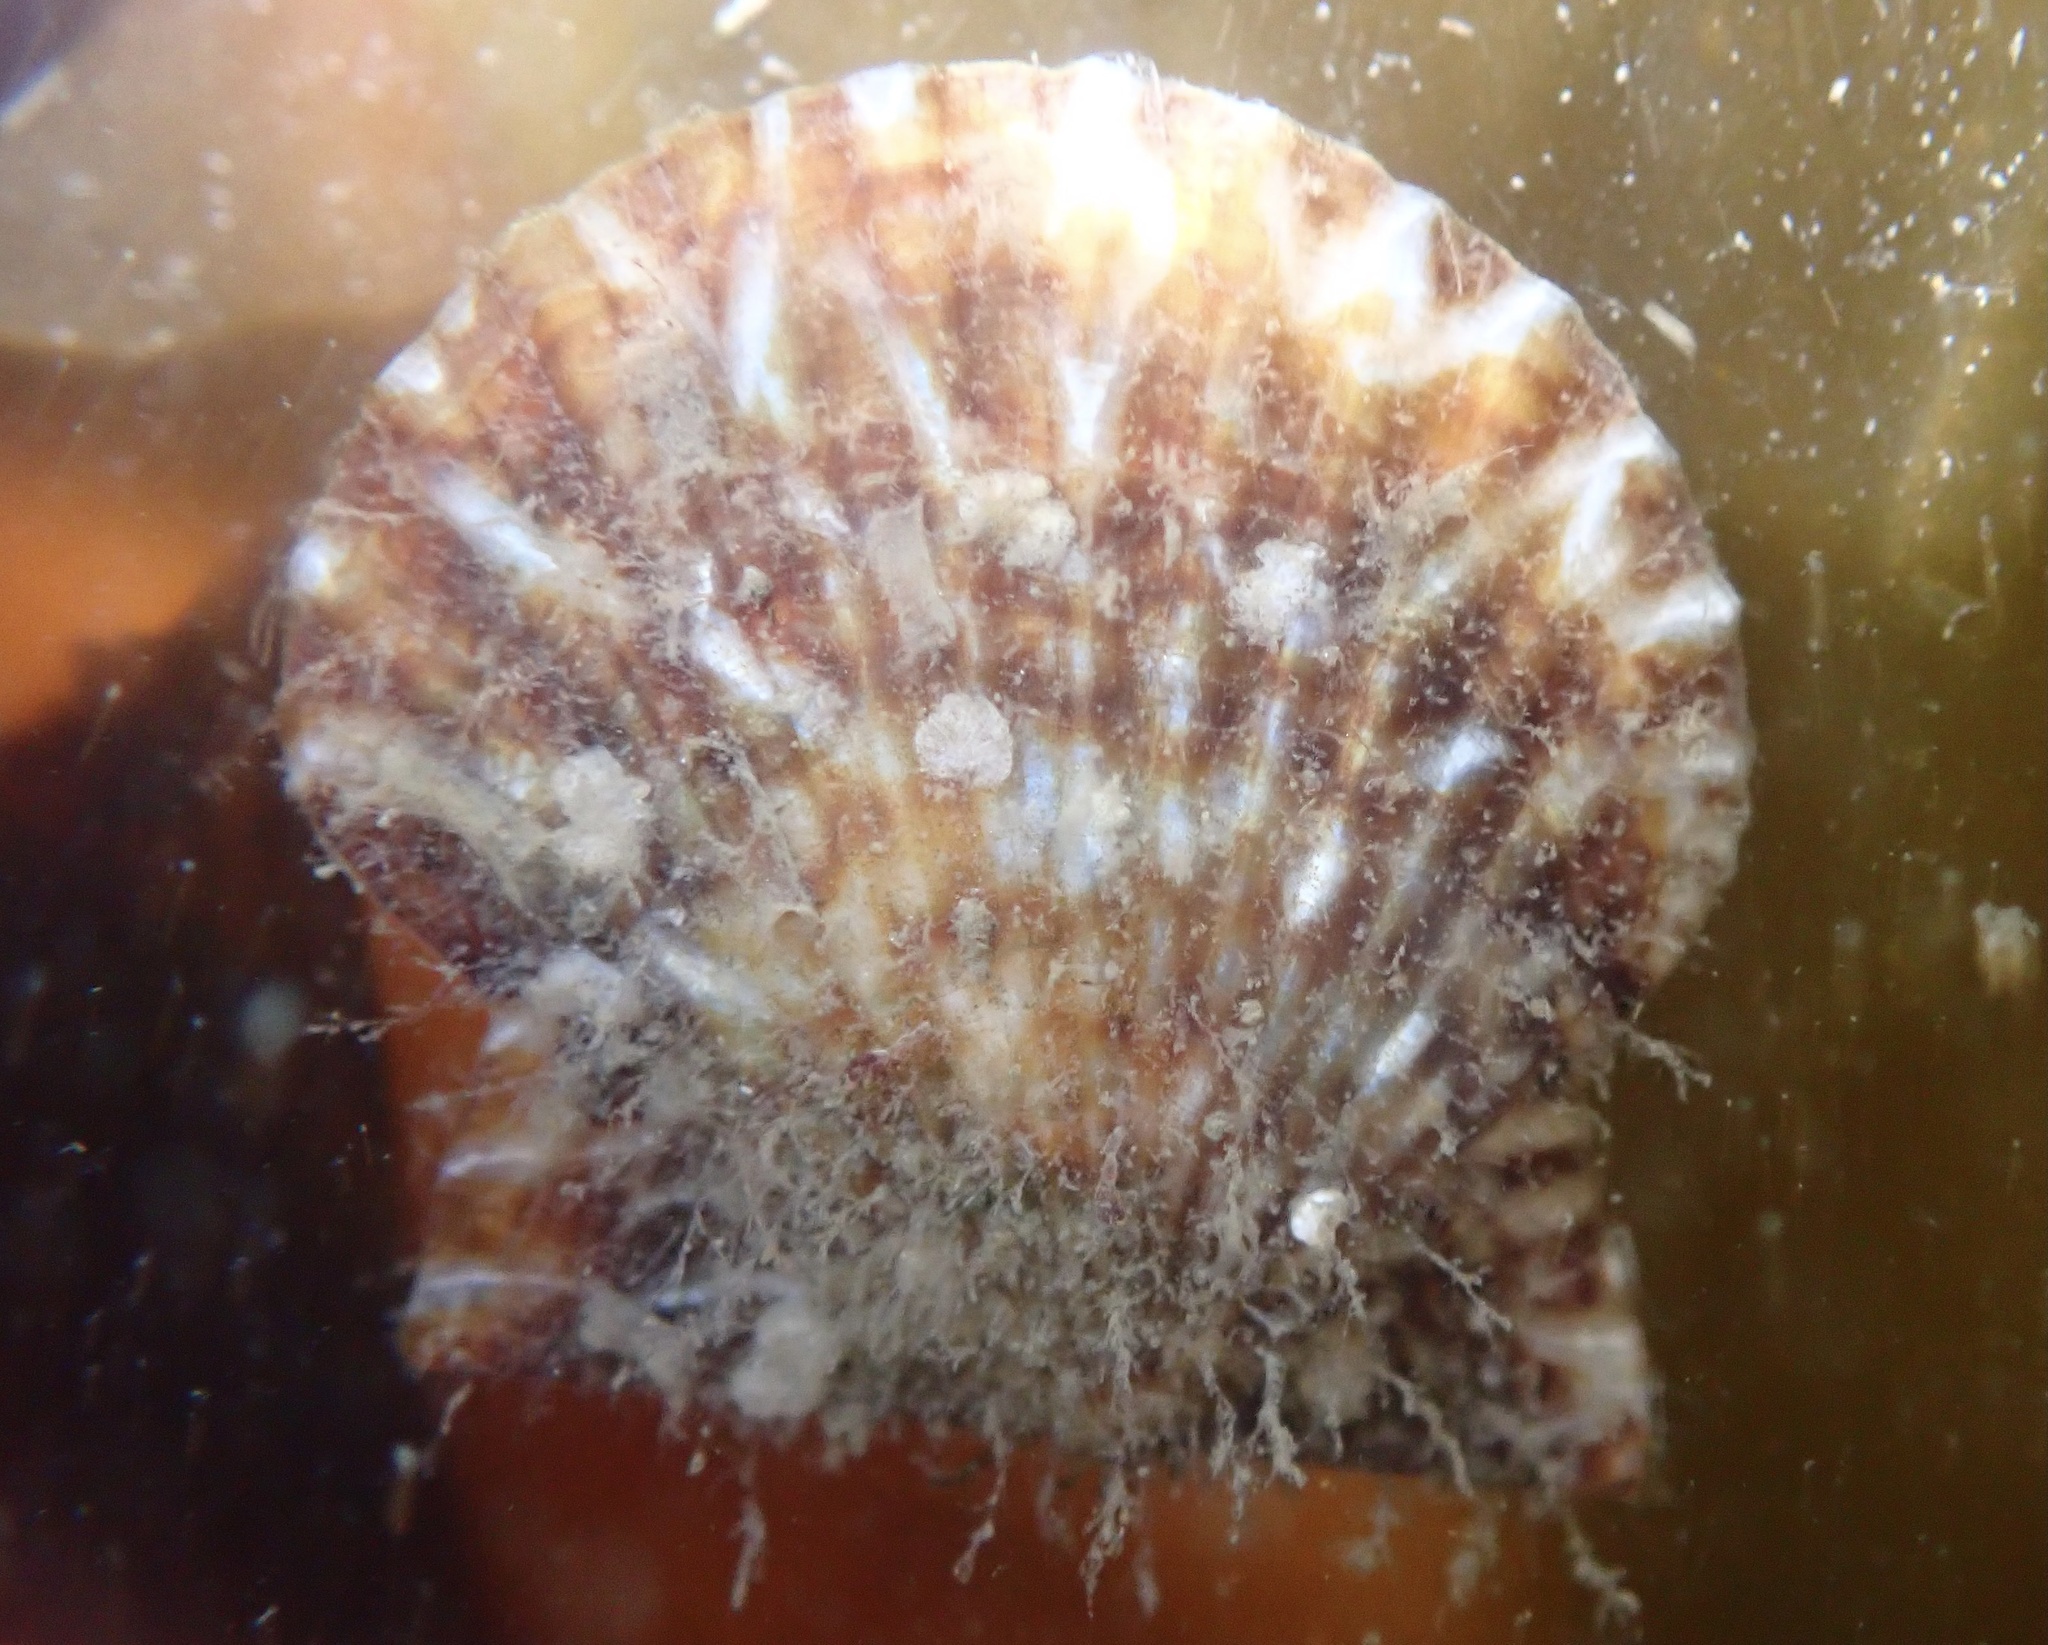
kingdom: Animalia
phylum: Mollusca
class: Bivalvia
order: Pectinida
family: Pectinidae
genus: Leptopecten
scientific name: Leptopecten latiauratus
